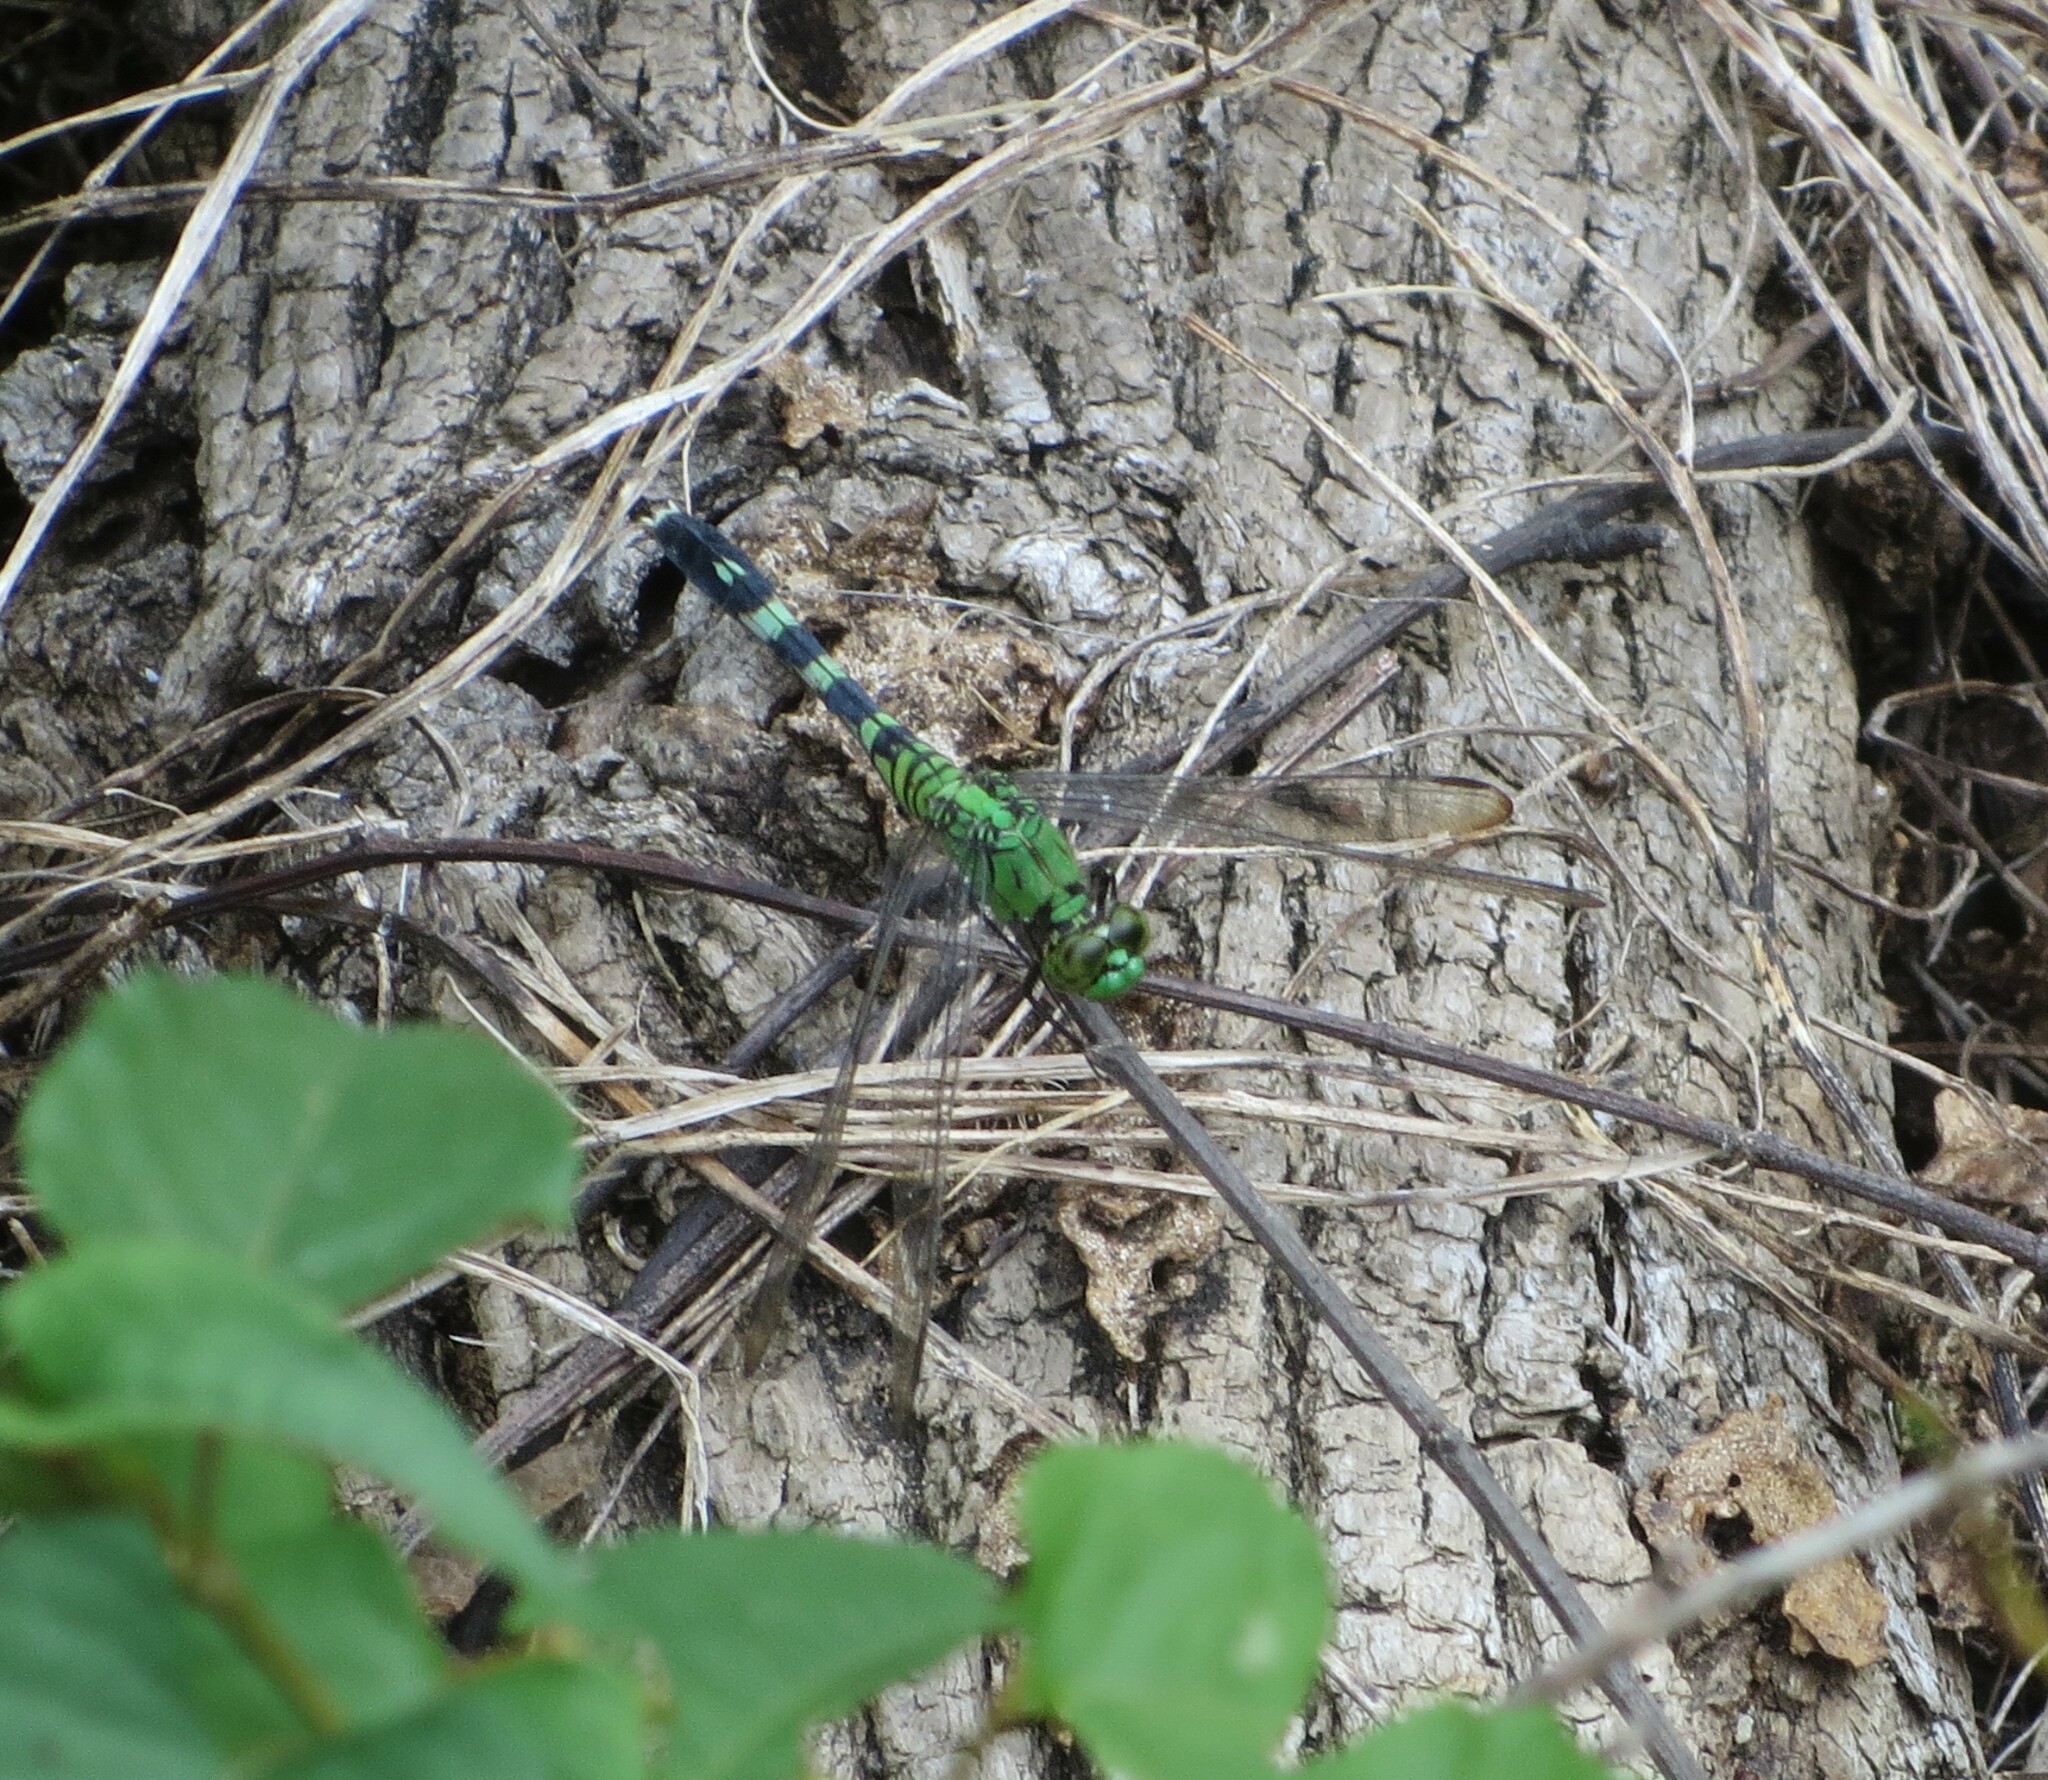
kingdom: Animalia
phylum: Arthropoda
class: Insecta
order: Odonata
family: Libellulidae
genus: Erythemis
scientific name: Erythemis simplicicollis
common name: Eastern pondhawk
